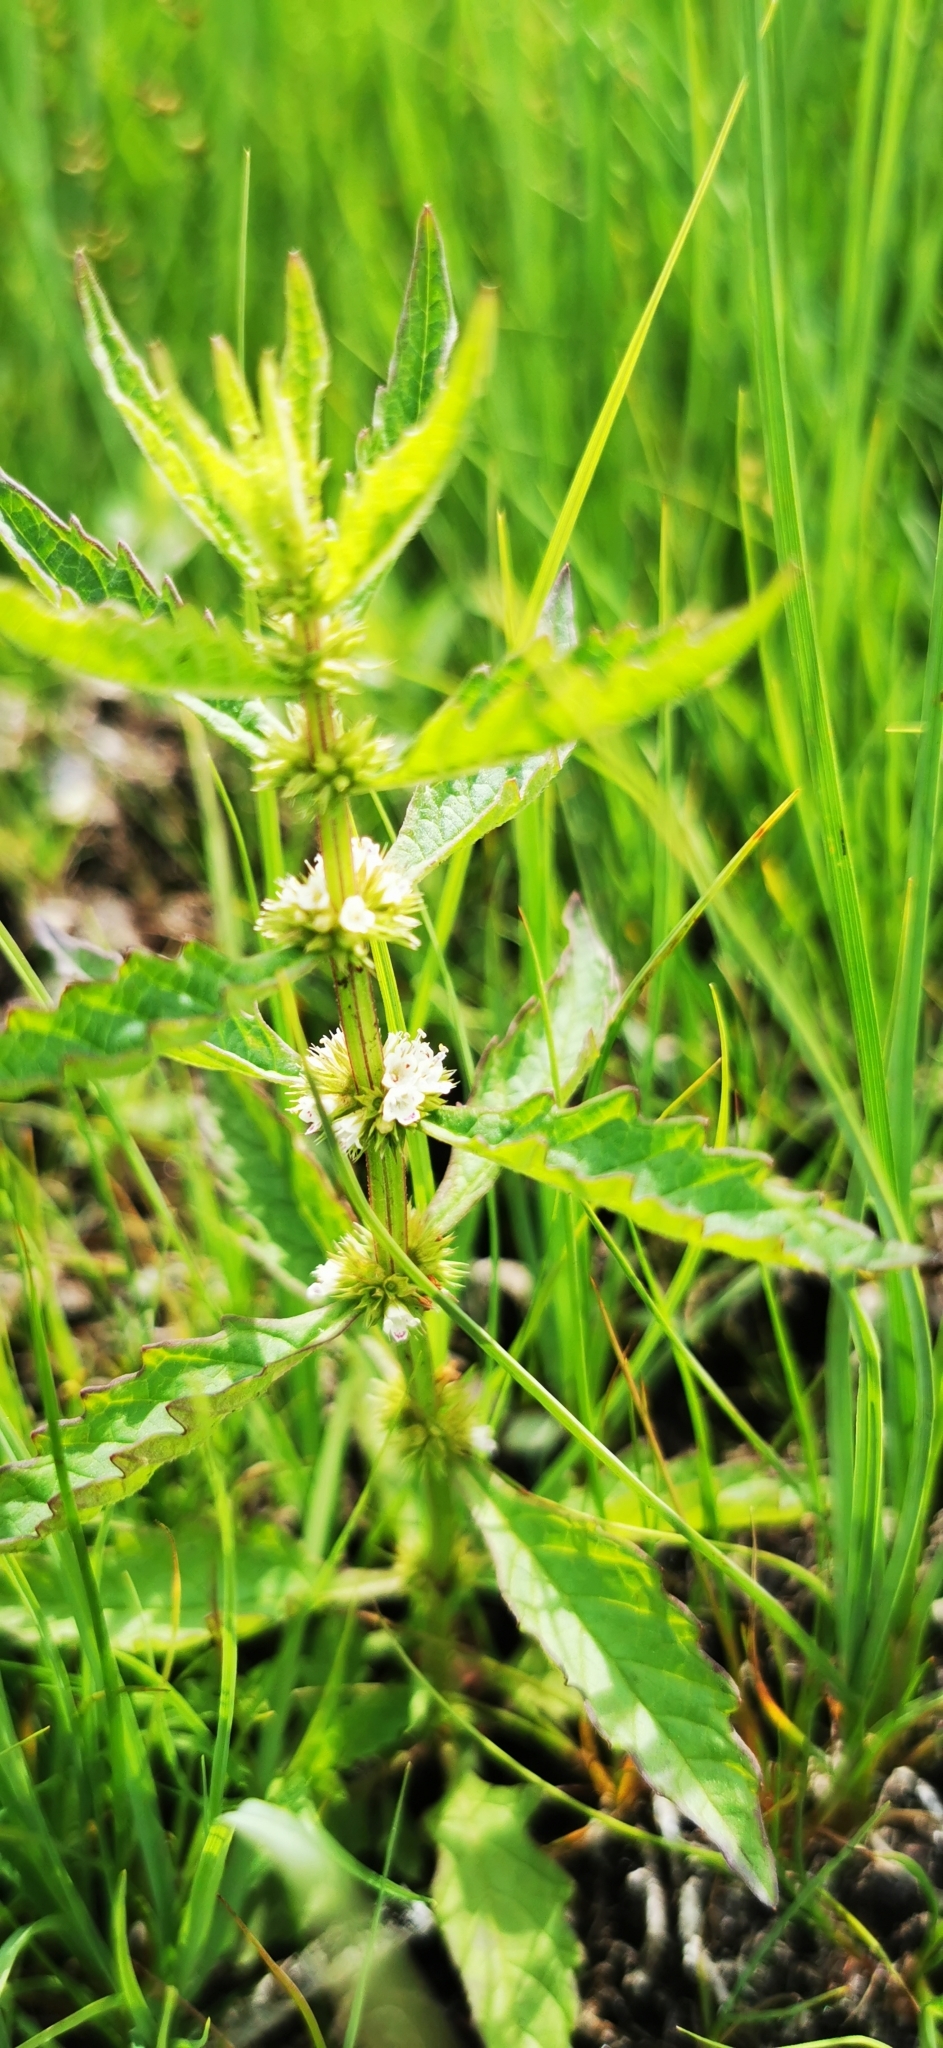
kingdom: Plantae
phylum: Tracheophyta
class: Magnoliopsida
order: Lamiales
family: Lamiaceae
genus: Lycopus
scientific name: Lycopus europaeus
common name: European bugleweed
